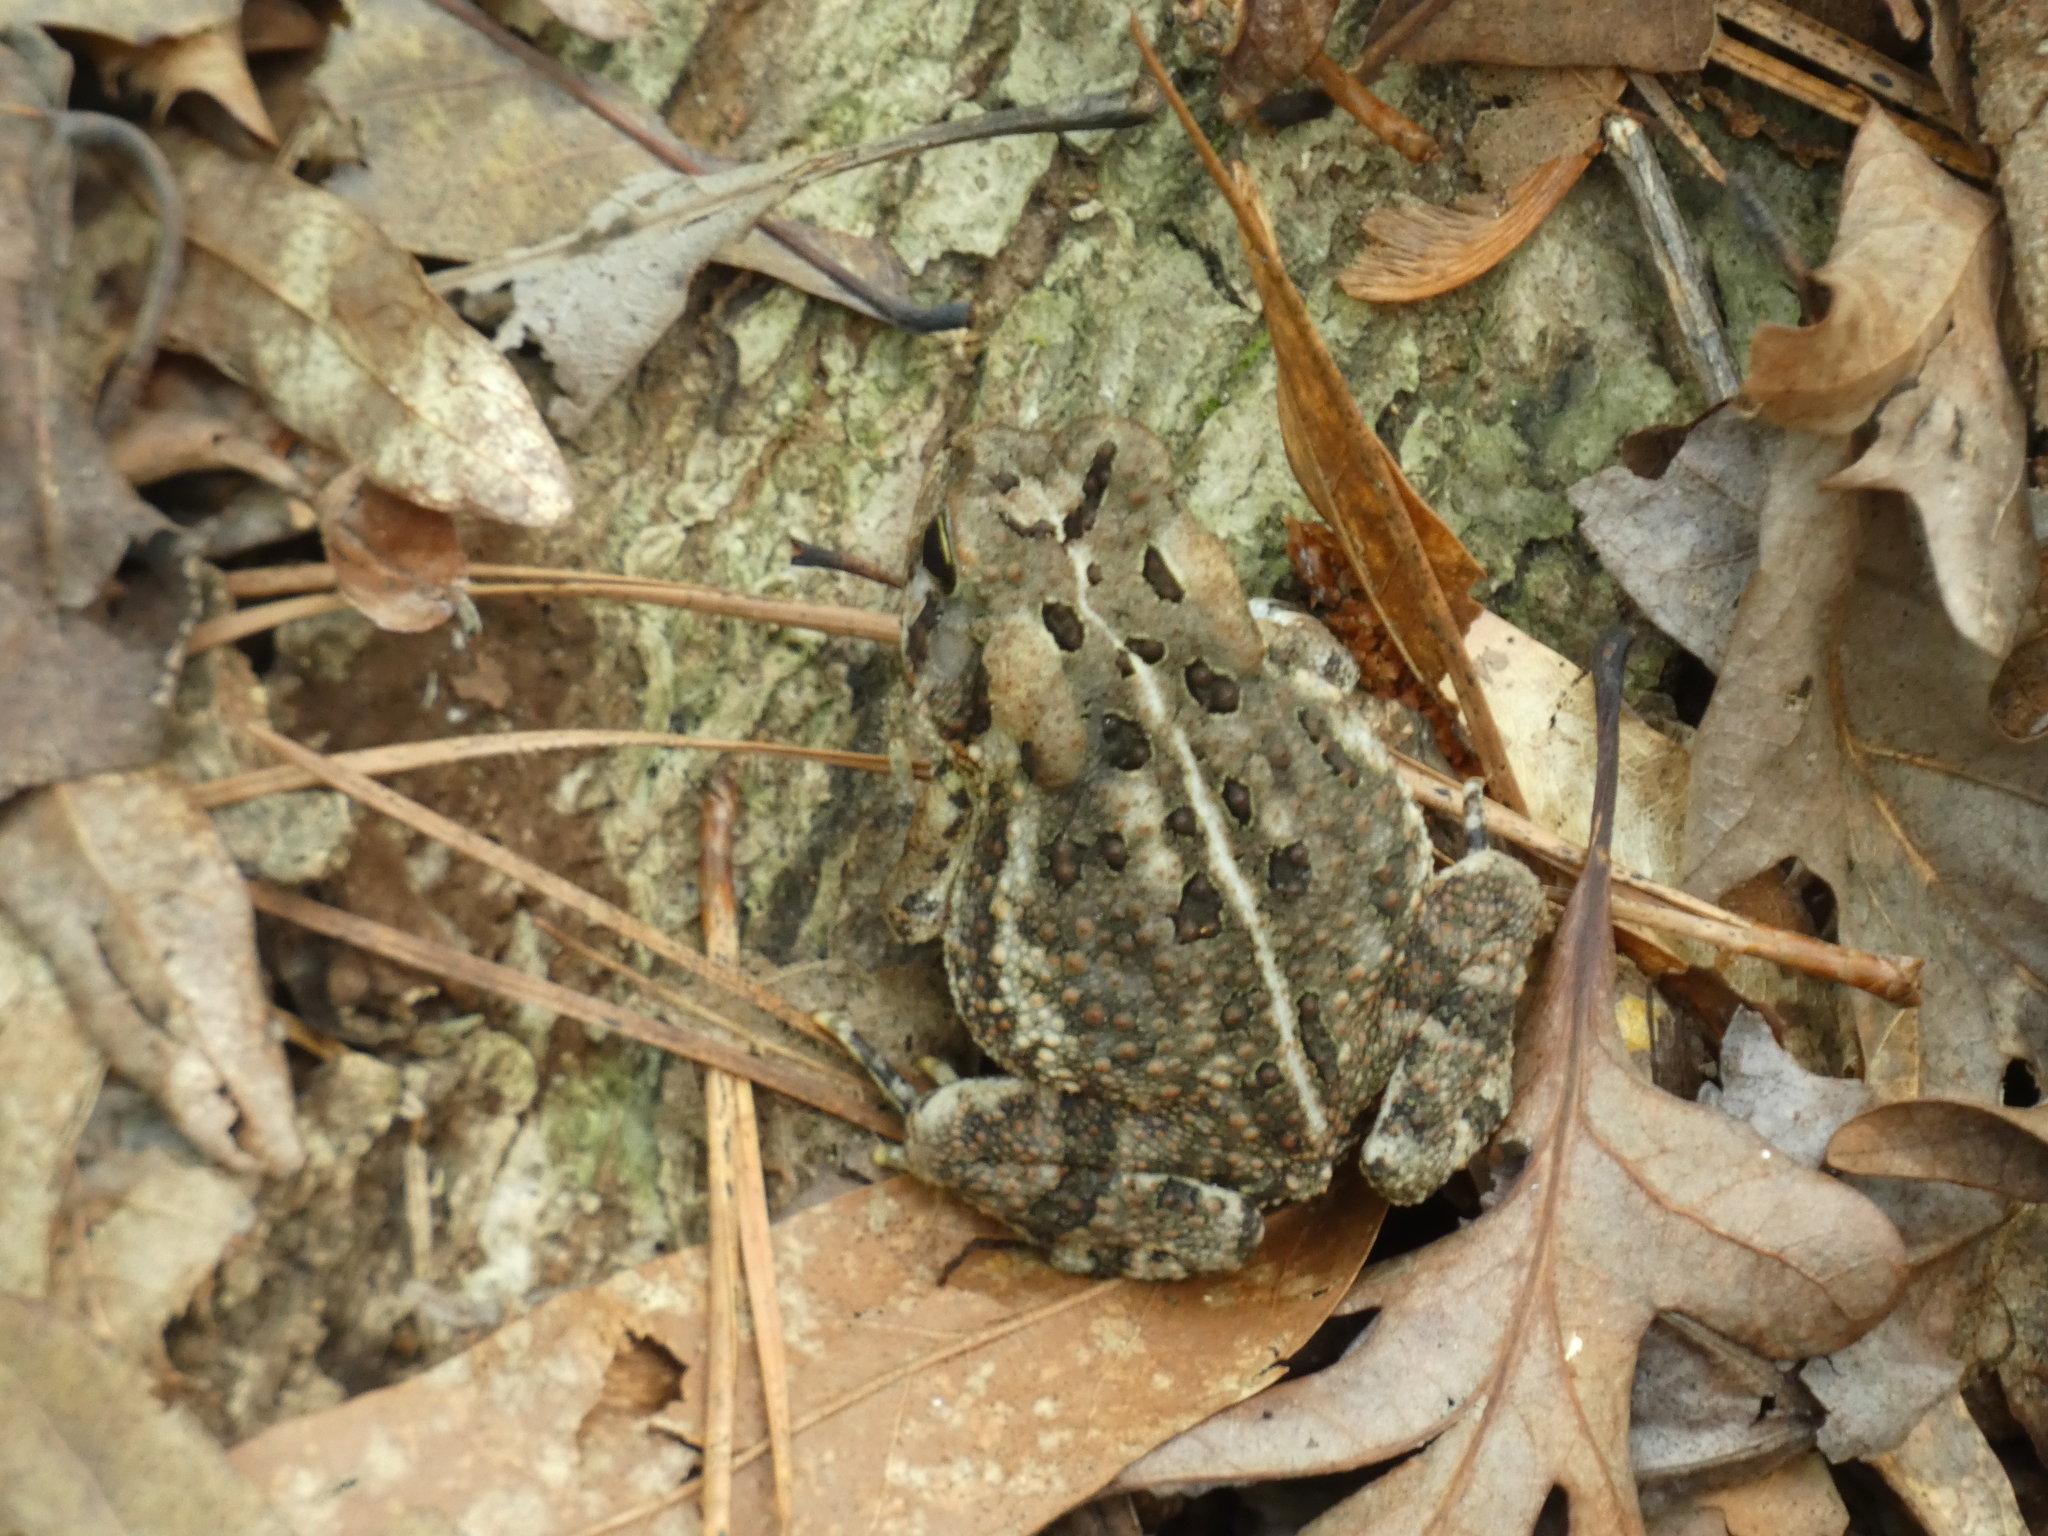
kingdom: Animalia
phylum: Chordata
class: Amphibia
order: Anura
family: Bufonidae
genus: Anaxyrus
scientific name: Anaxyrus fowleri
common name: Fowler's toad
